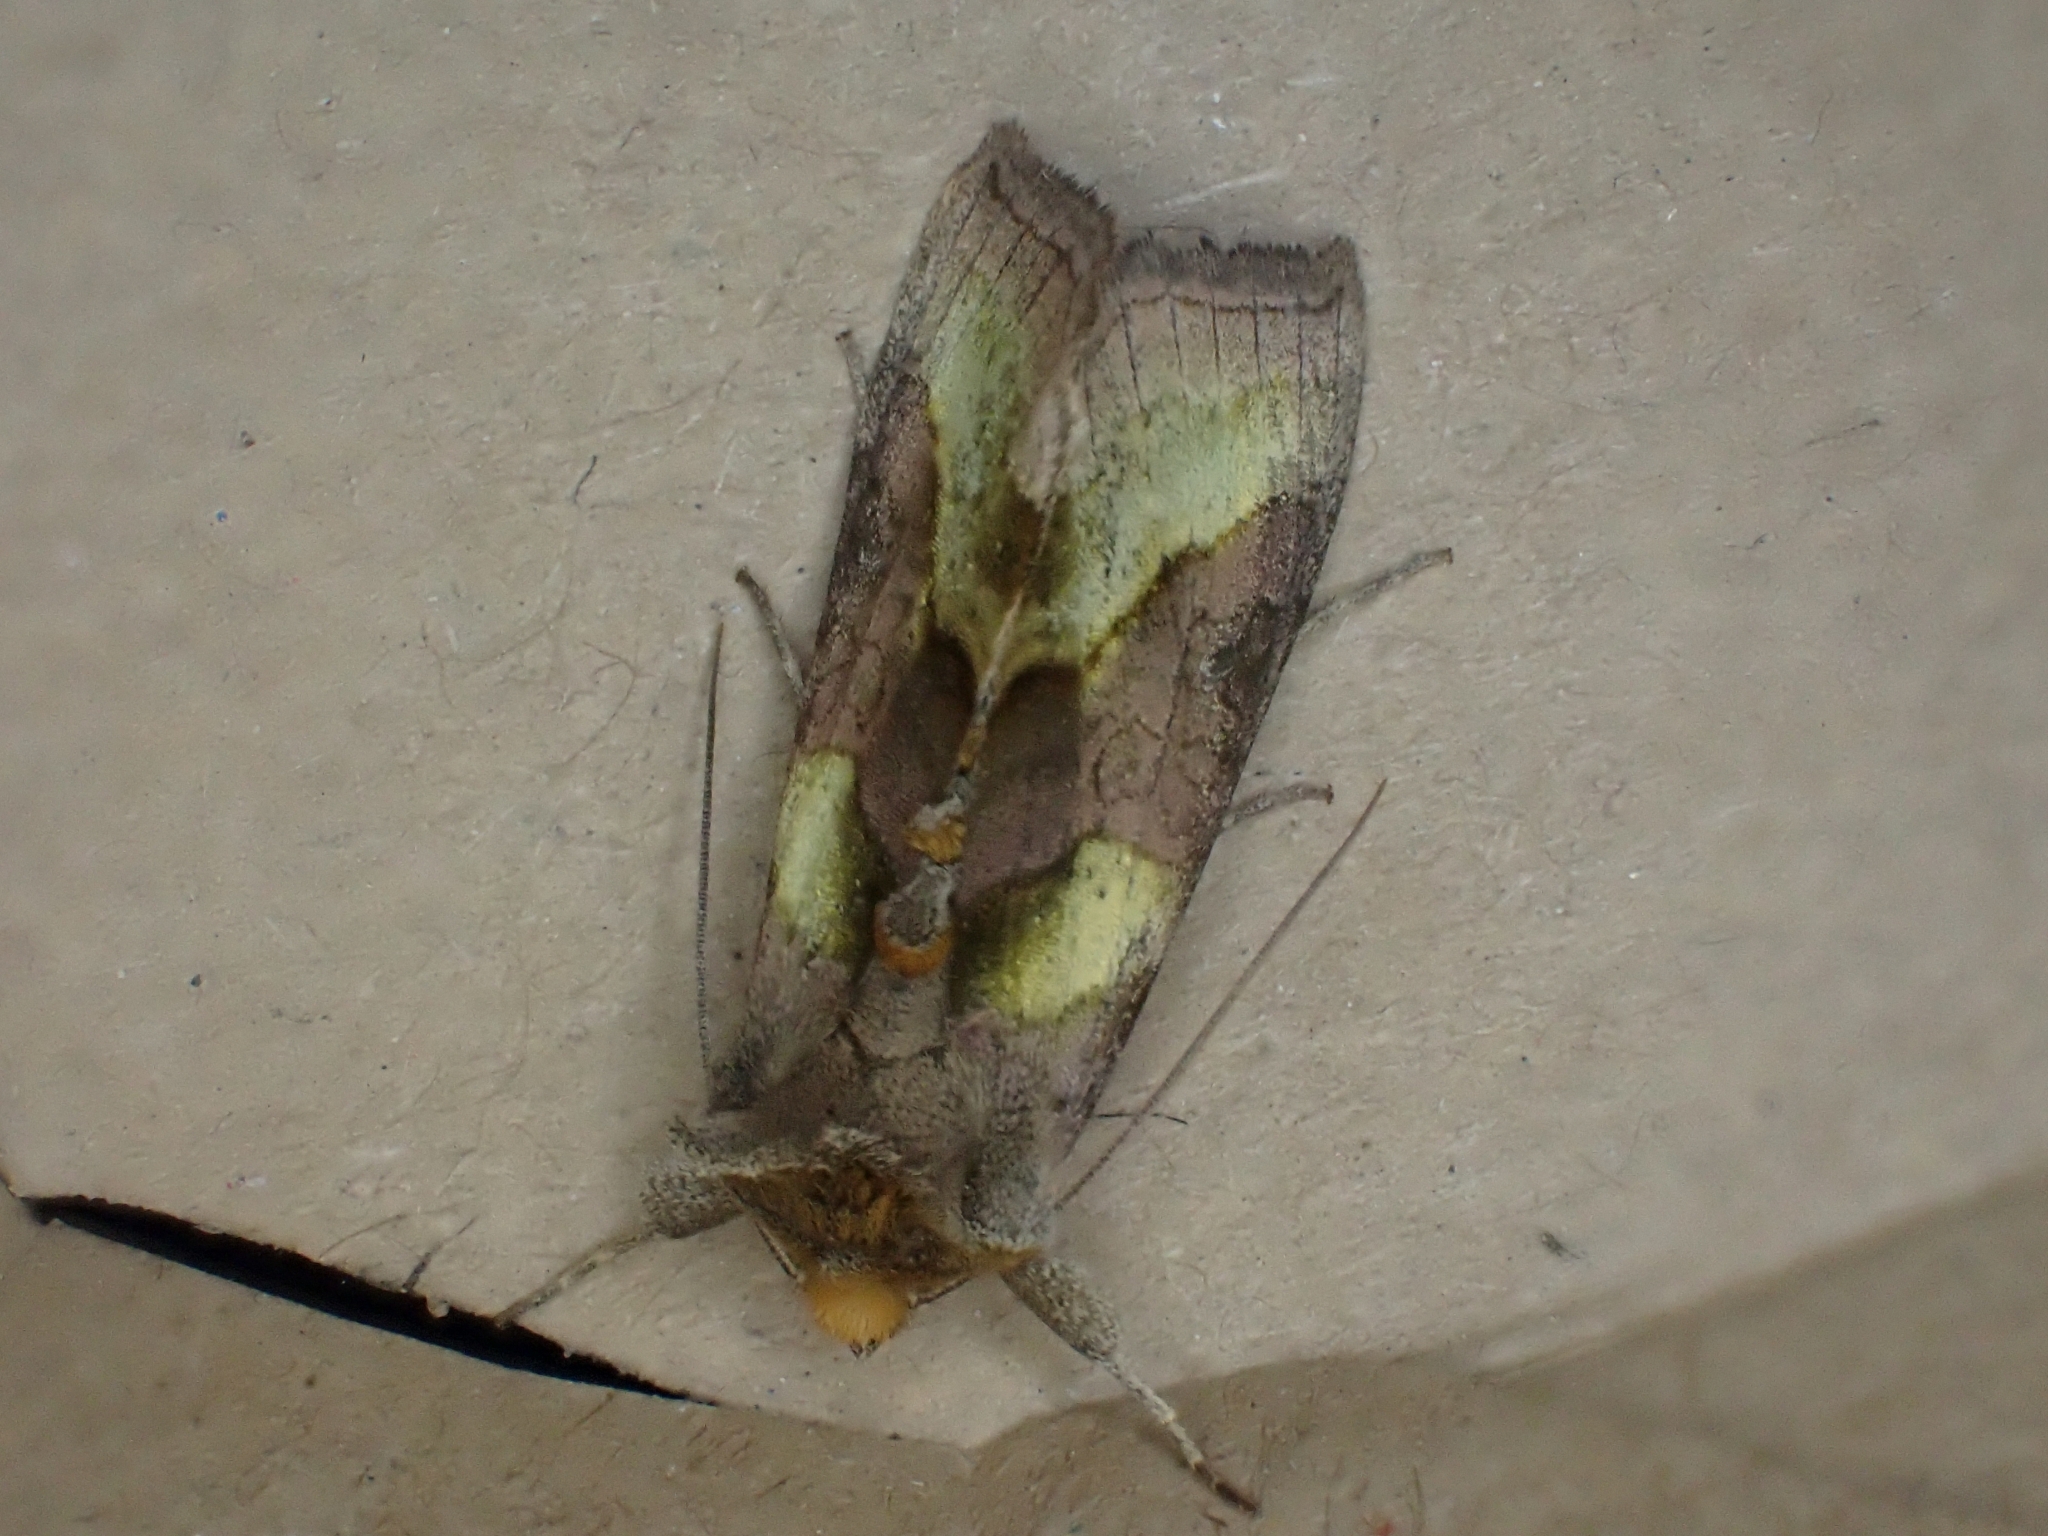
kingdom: Animalia
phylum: Arthropoda
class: Insecta
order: Lepidoptera
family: Noctuidae
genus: Diachrysia
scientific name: Diachrysia chrysitis
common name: Burnished brass
